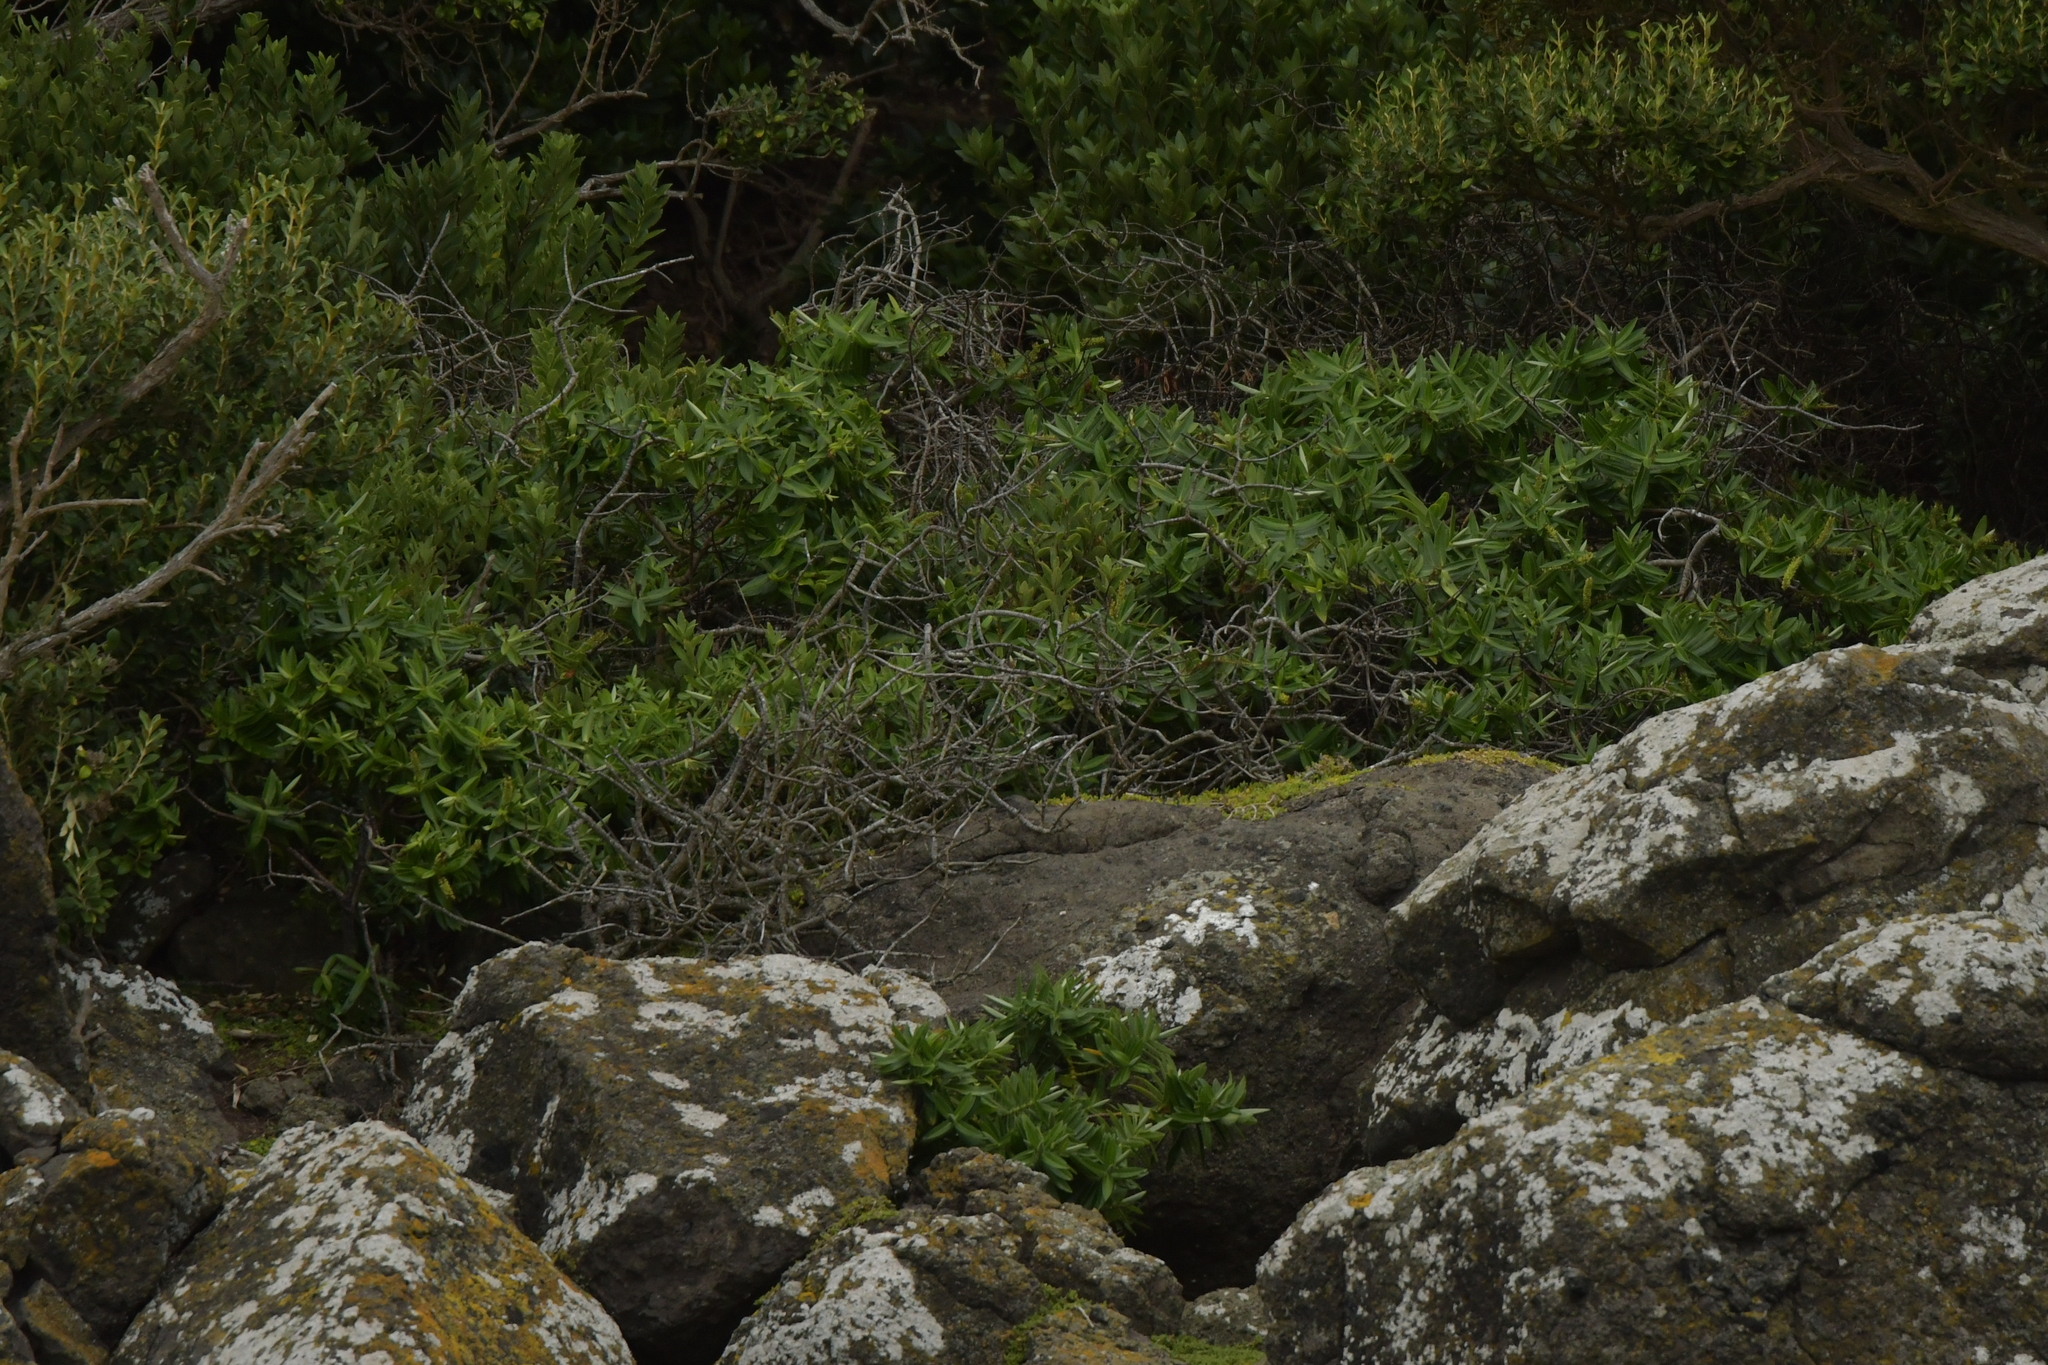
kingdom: Plantae
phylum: Tracheophyta
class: Magnoliopsida
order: Lamiales
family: Plantaginaceae
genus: Veronica
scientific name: Veronica dieffenbachii
